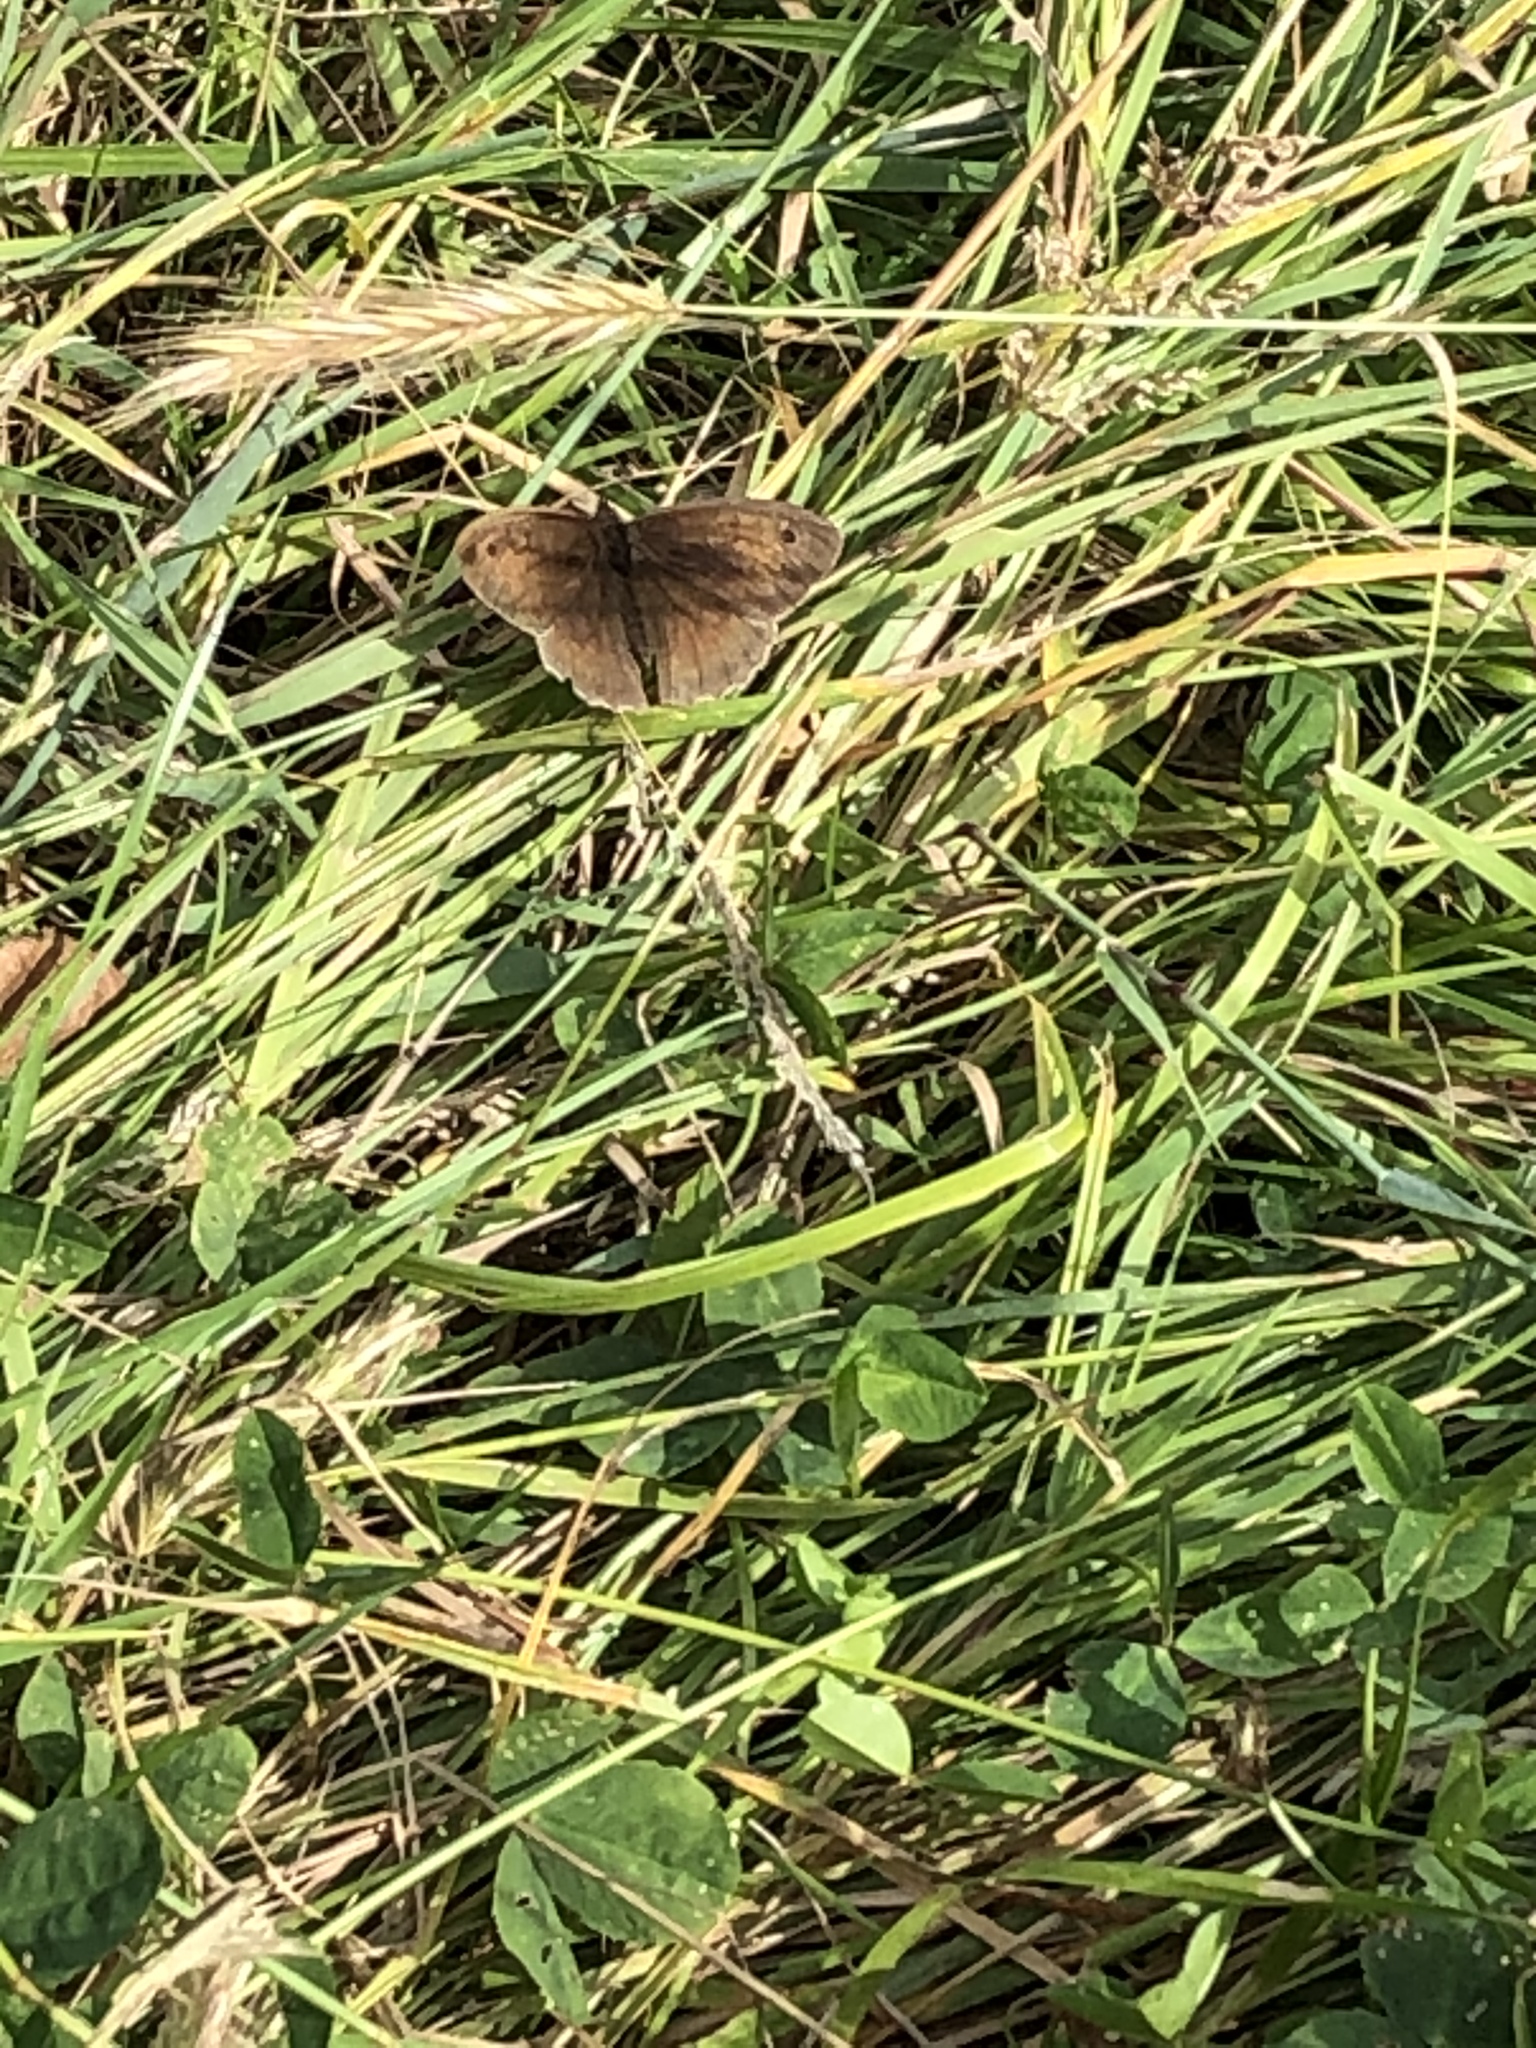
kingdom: Animalia
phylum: Arthropoda
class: Insecta
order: Lepidoptera
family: Nymphalidae
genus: Maniola
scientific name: Maniola jurtina
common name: Meadow brown
